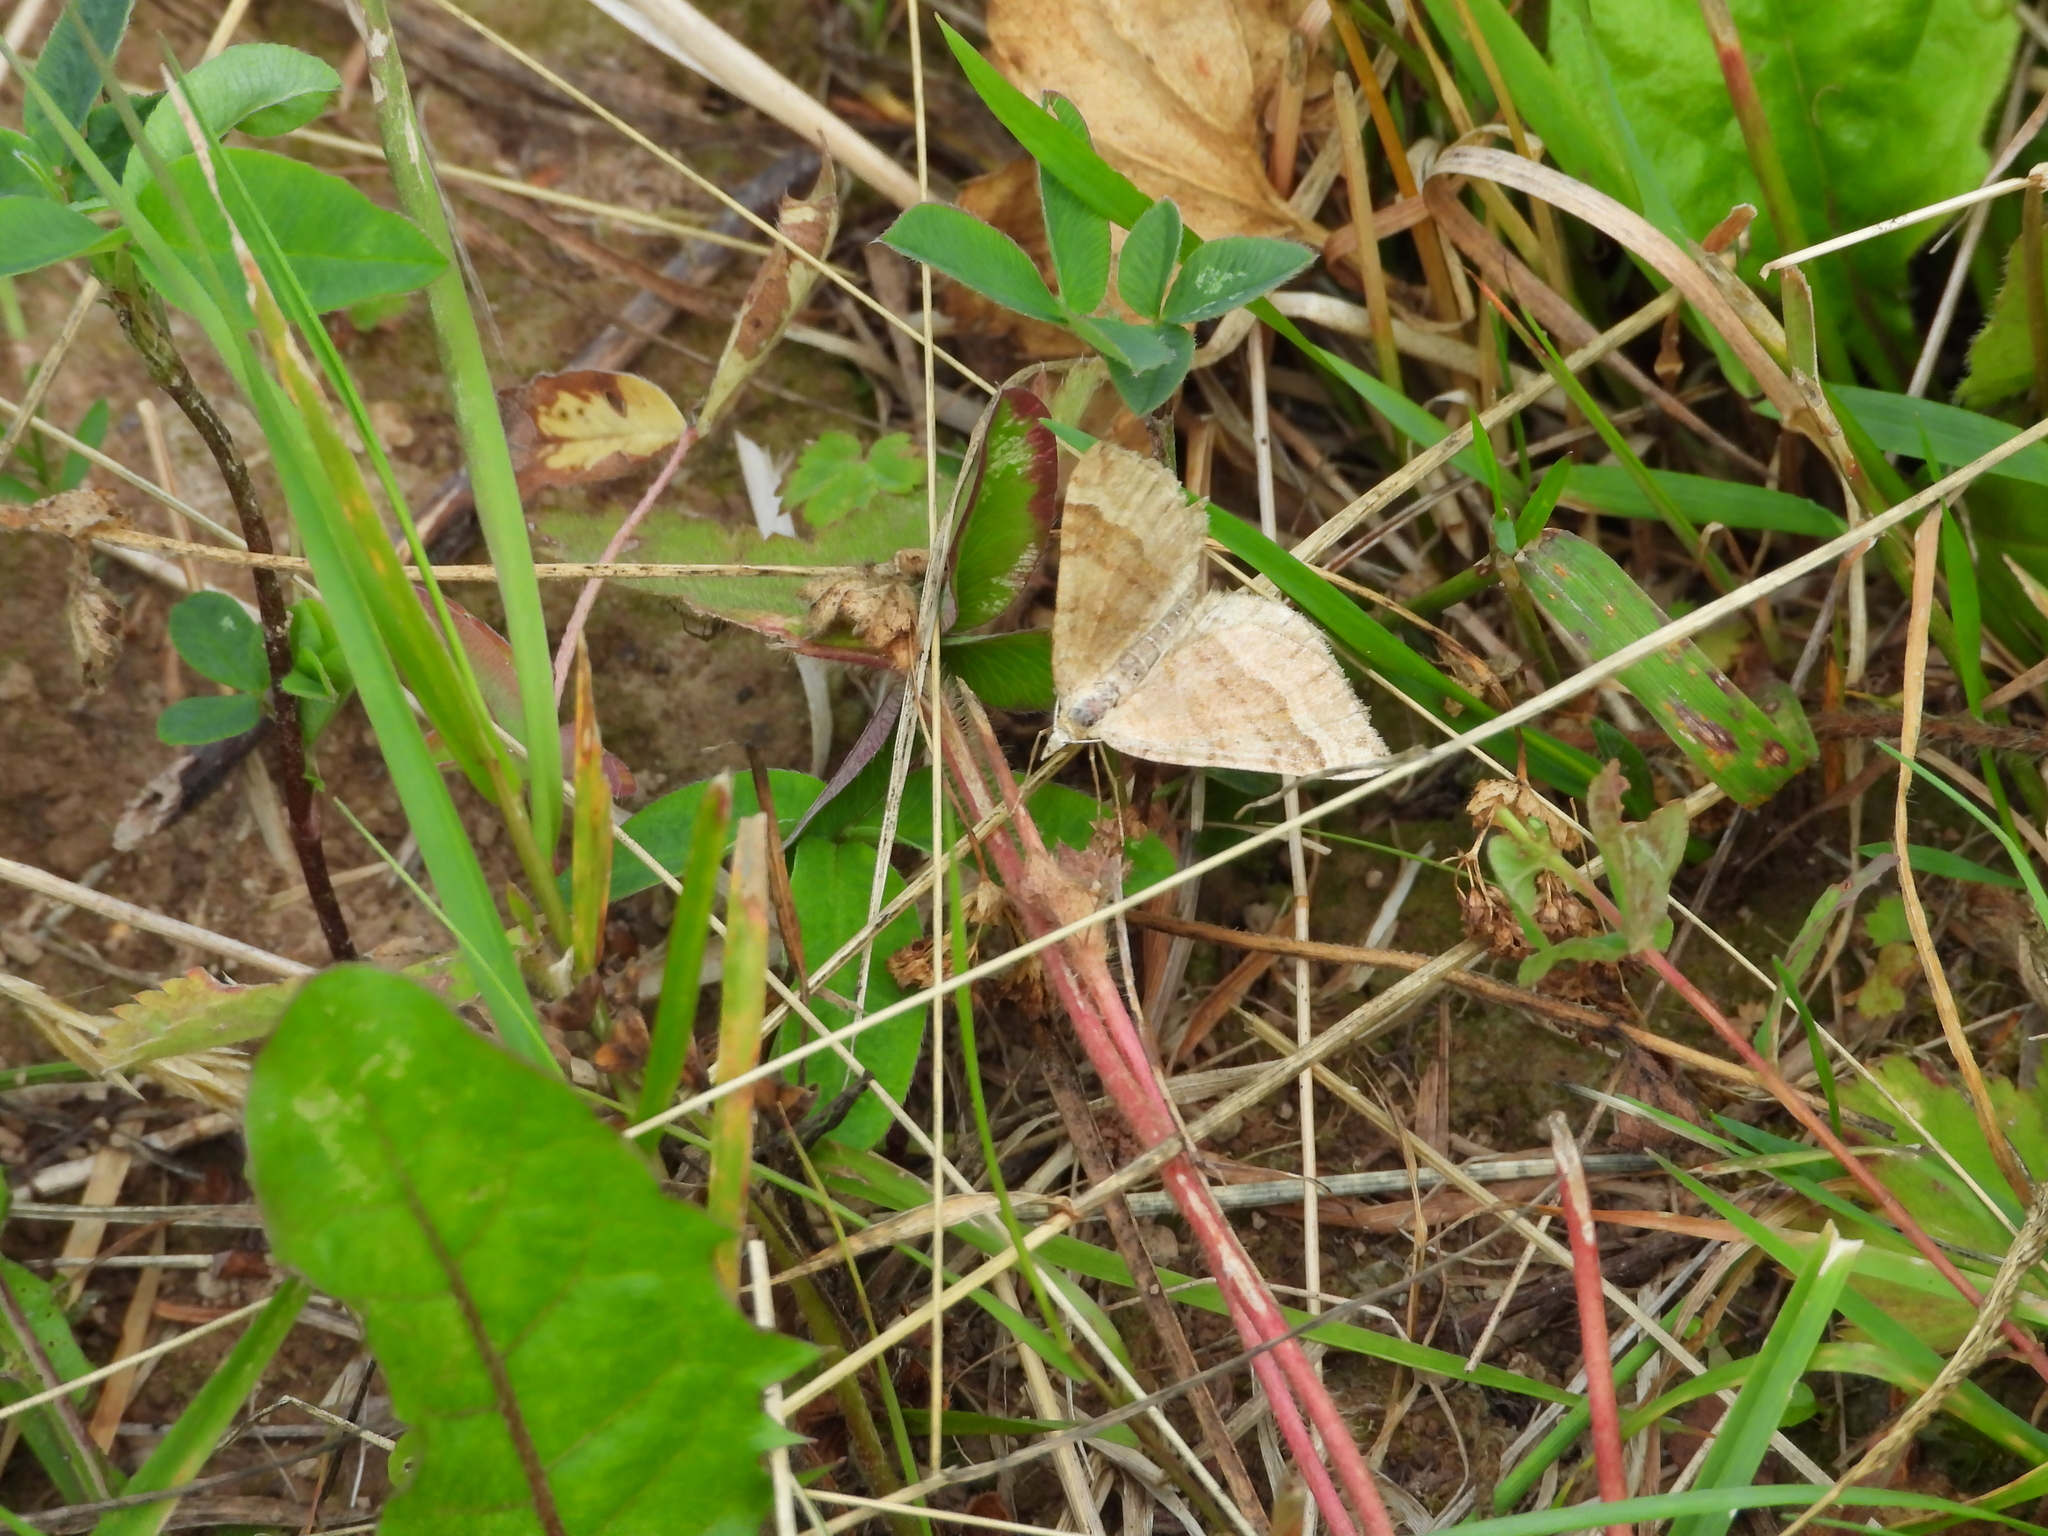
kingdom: Animalia
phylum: Arthropoda
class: Insecta
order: Lepidoptera
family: Geometridae
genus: Scotopteryx
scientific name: Scotopteryx chenopodiata
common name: Shaded broad-bar
